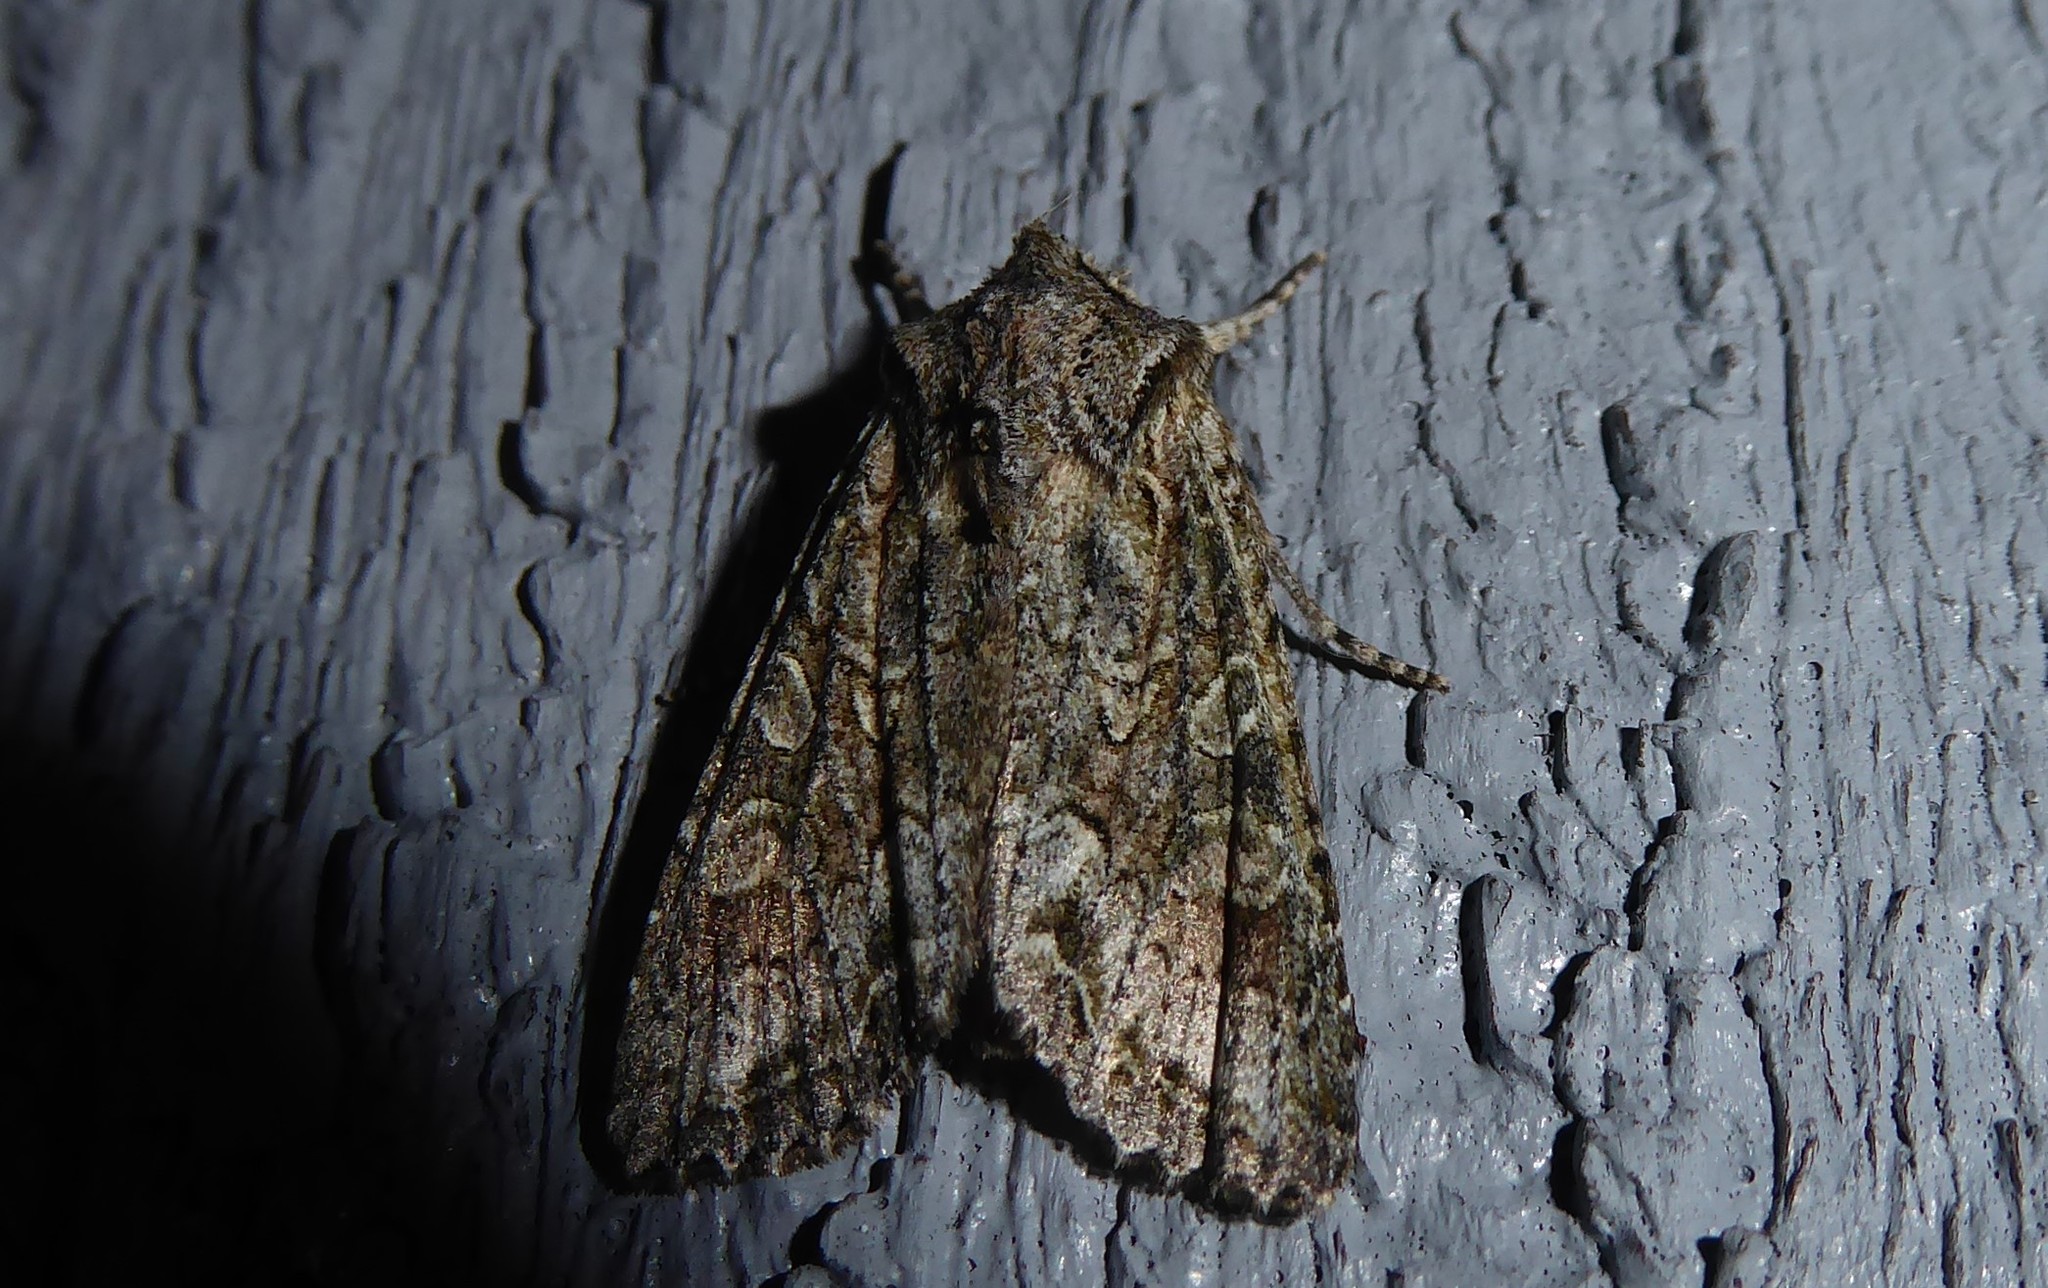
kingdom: Animalia
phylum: Arthropoda
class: Insecta
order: Lepidoptera
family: Noctuidae
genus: Ichneutica
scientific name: Ichneutica mutans
